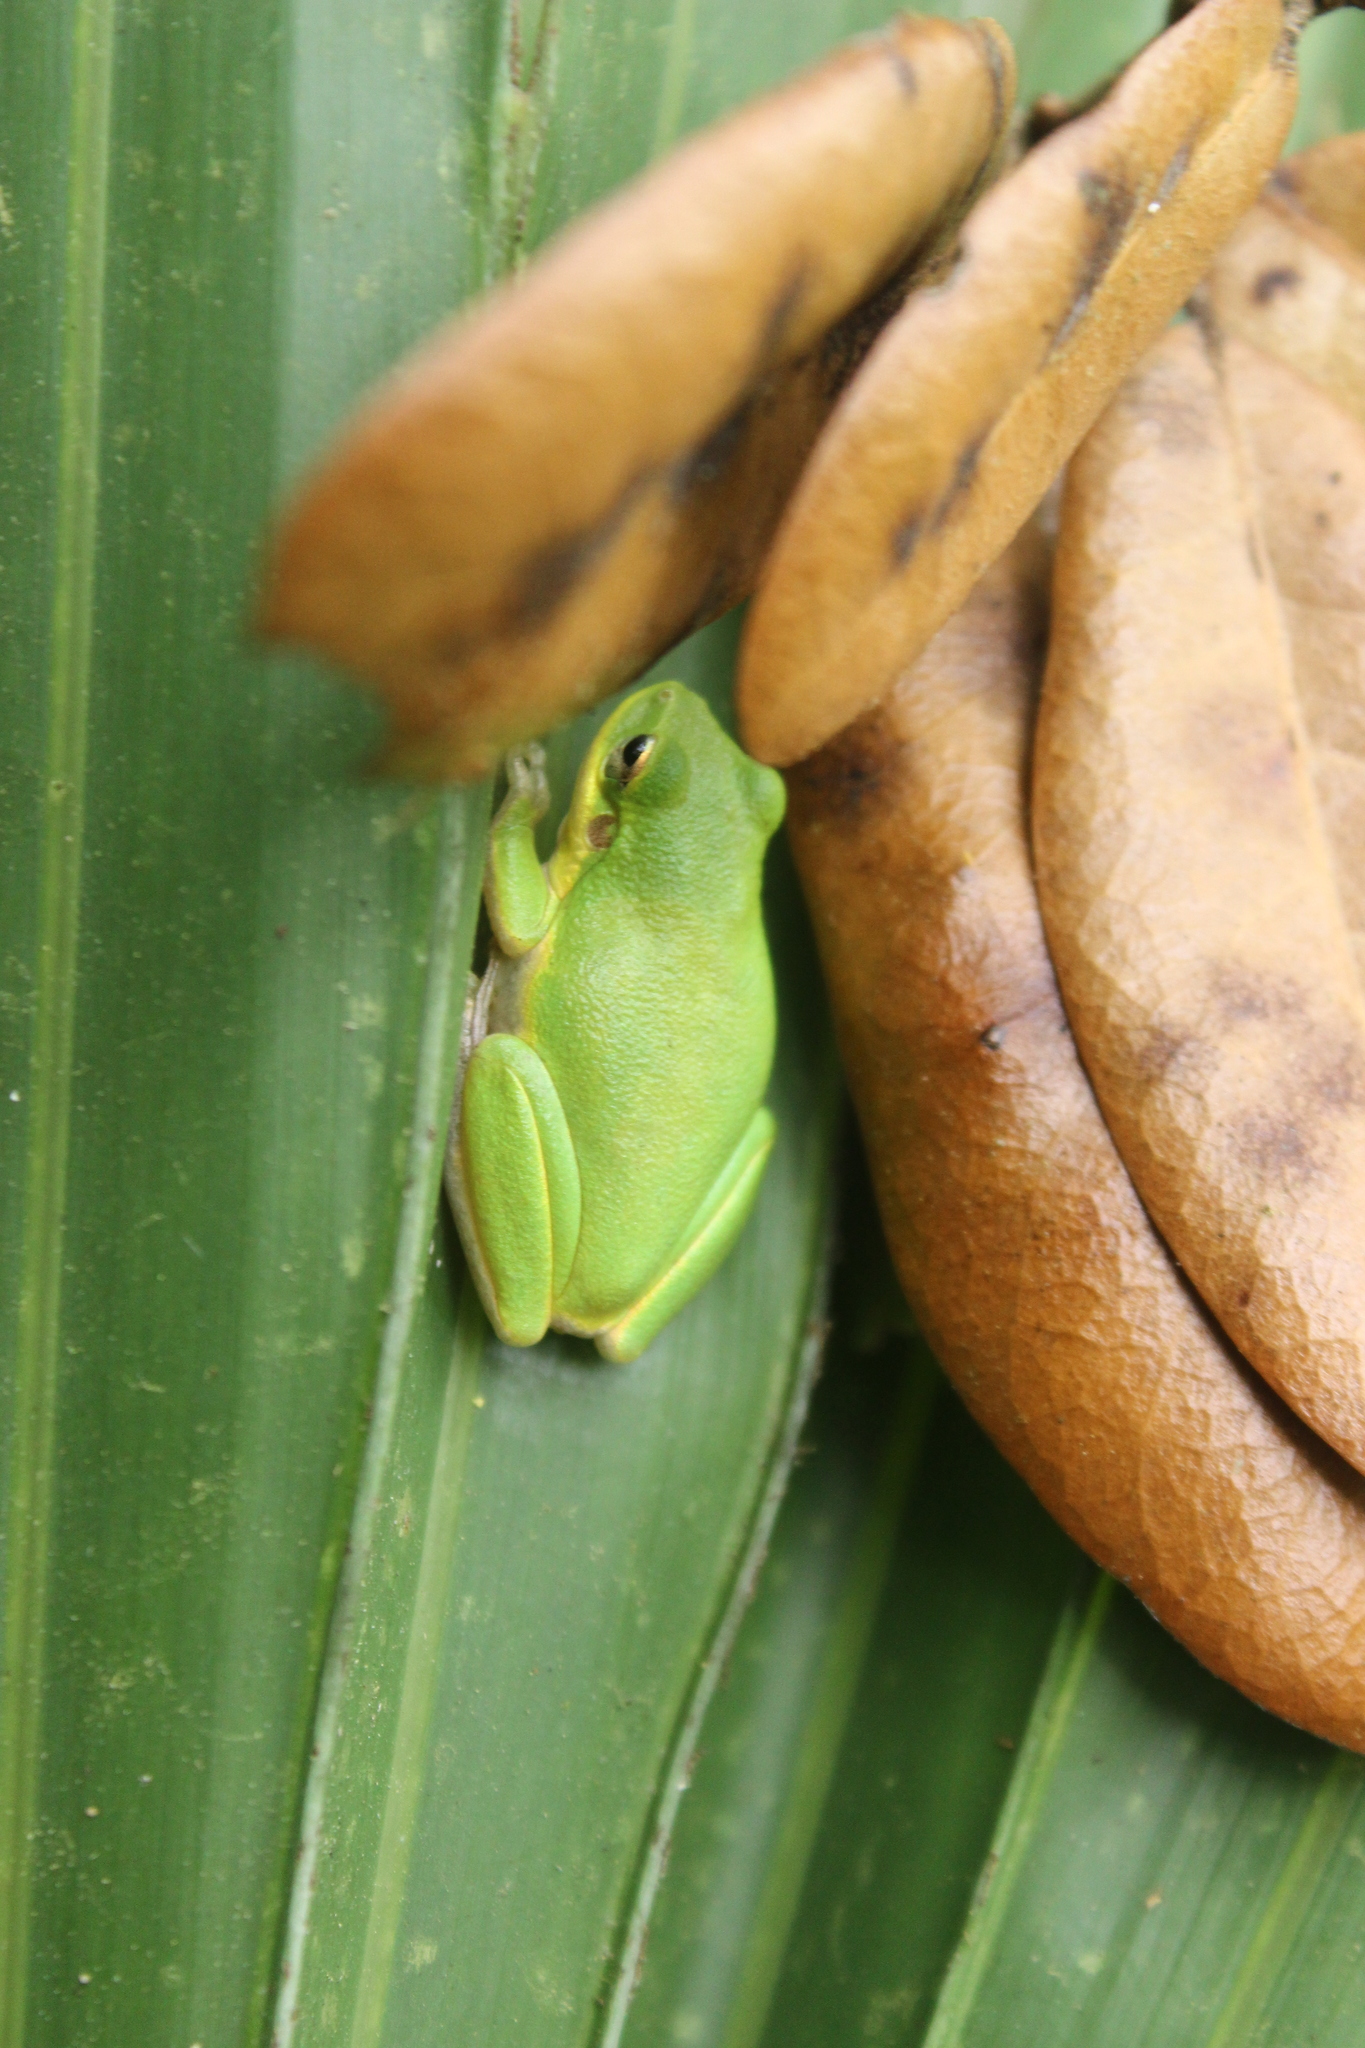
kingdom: Animalia
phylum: Chordata
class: Amphibia
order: Anura
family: Hylidae
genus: Dryophytes
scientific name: Dryophytes squirellus
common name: Squirrel treefrog
